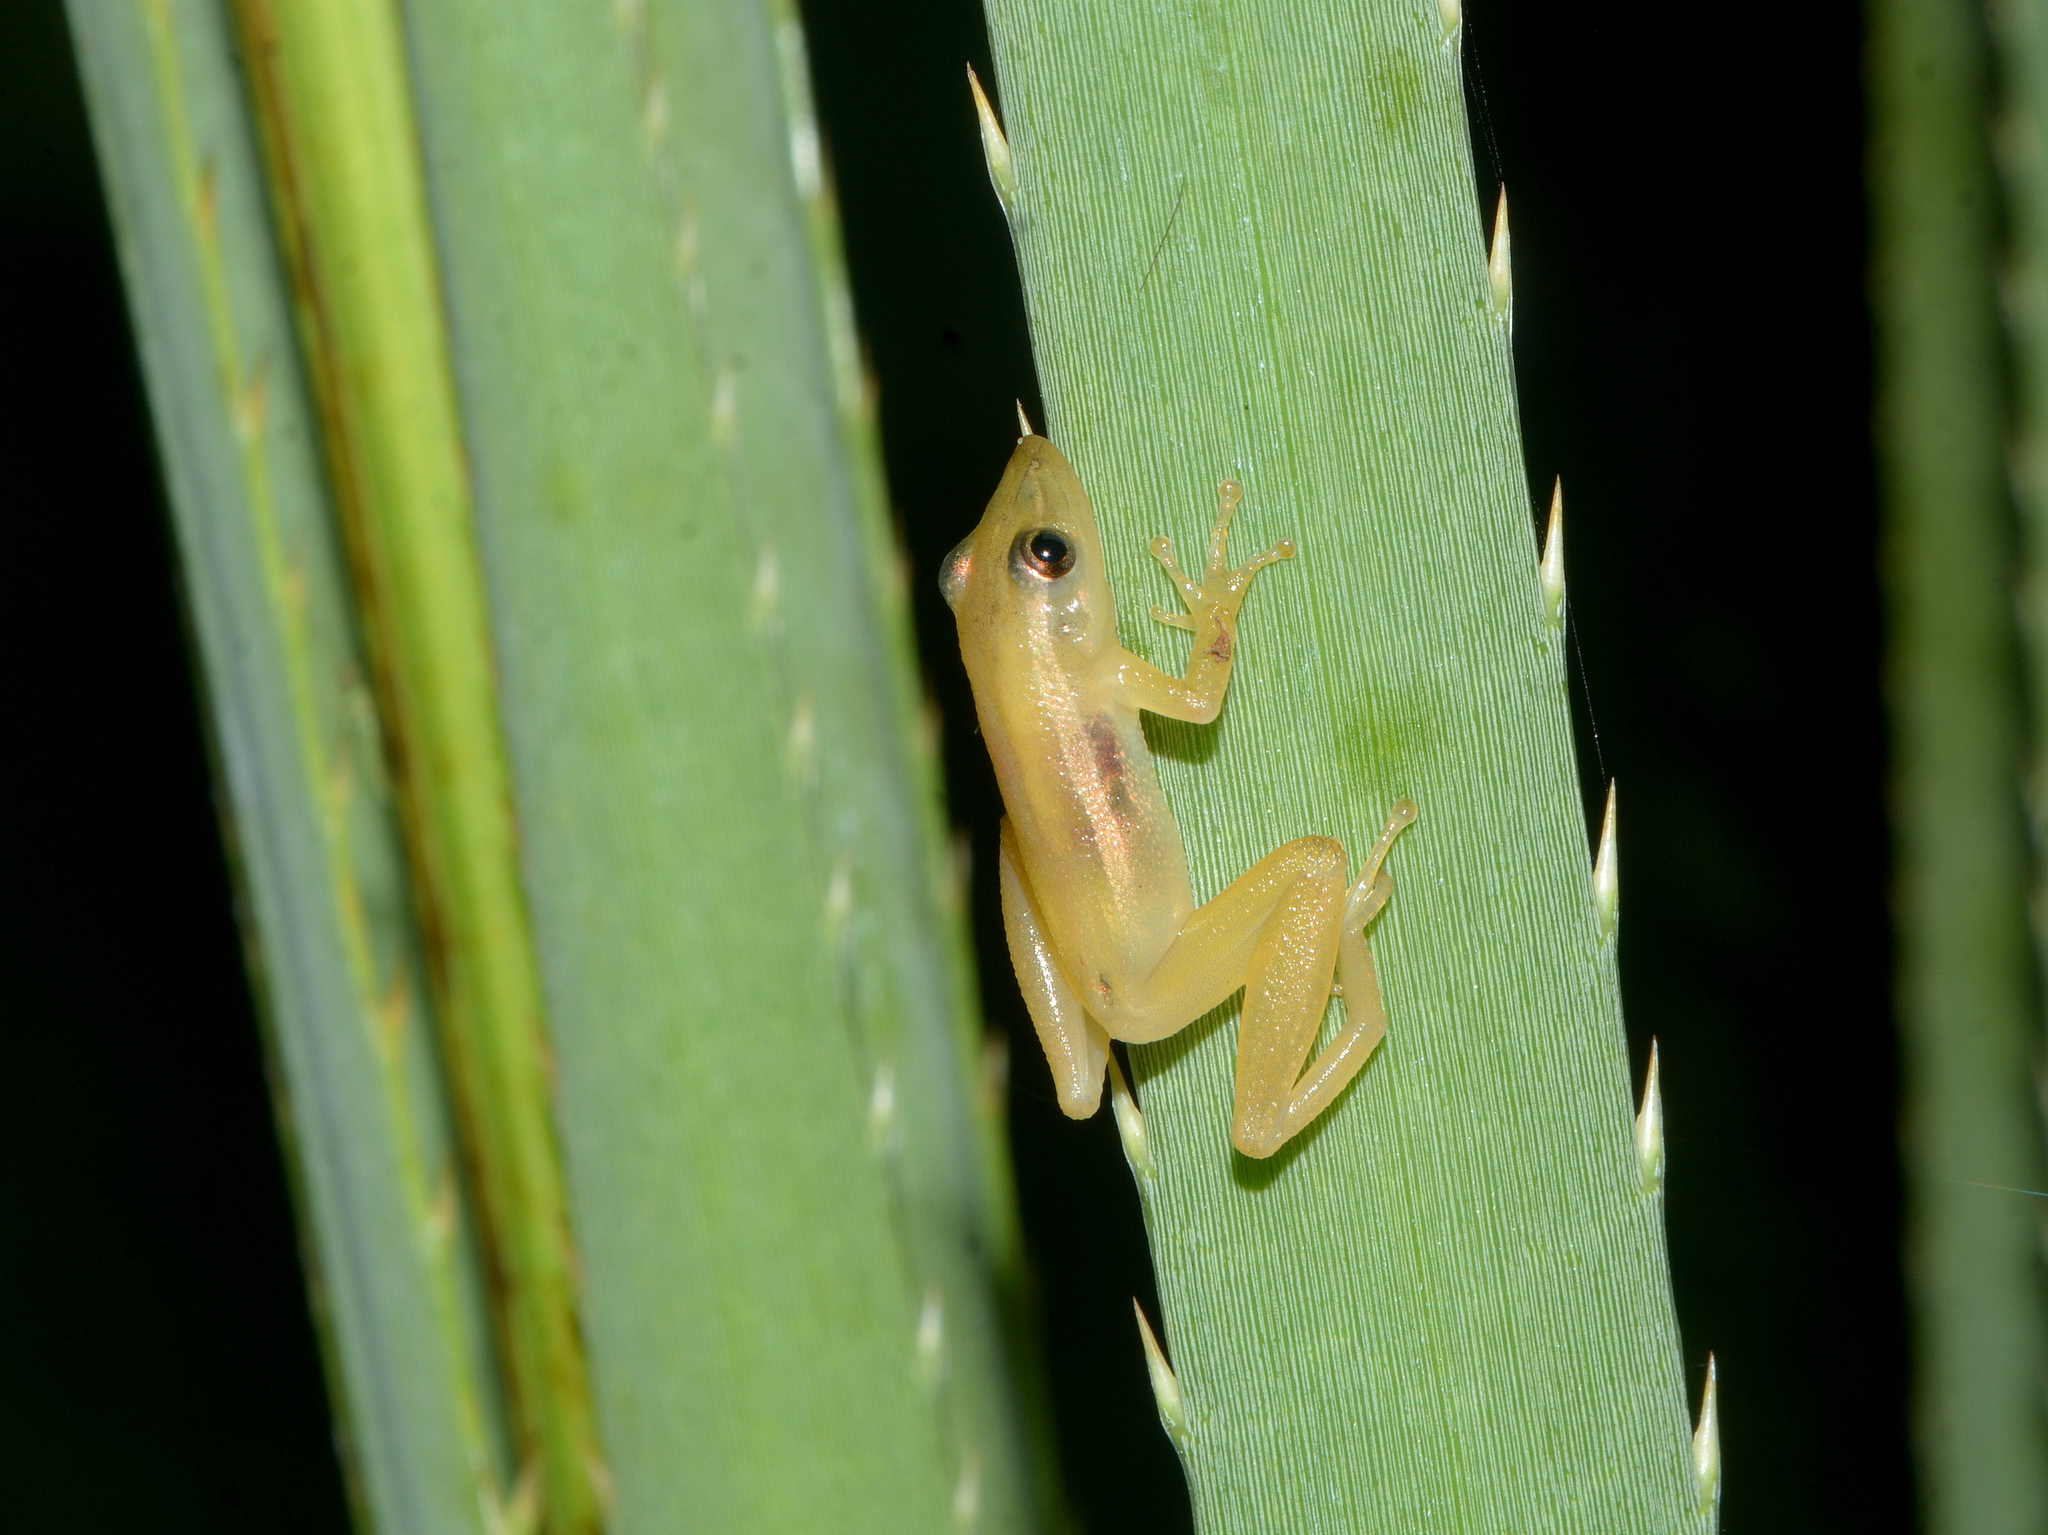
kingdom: Animalia
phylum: Chordata
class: Amphibia
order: Anura
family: Hylidae
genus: Scinax
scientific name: Scinax squalirostris
